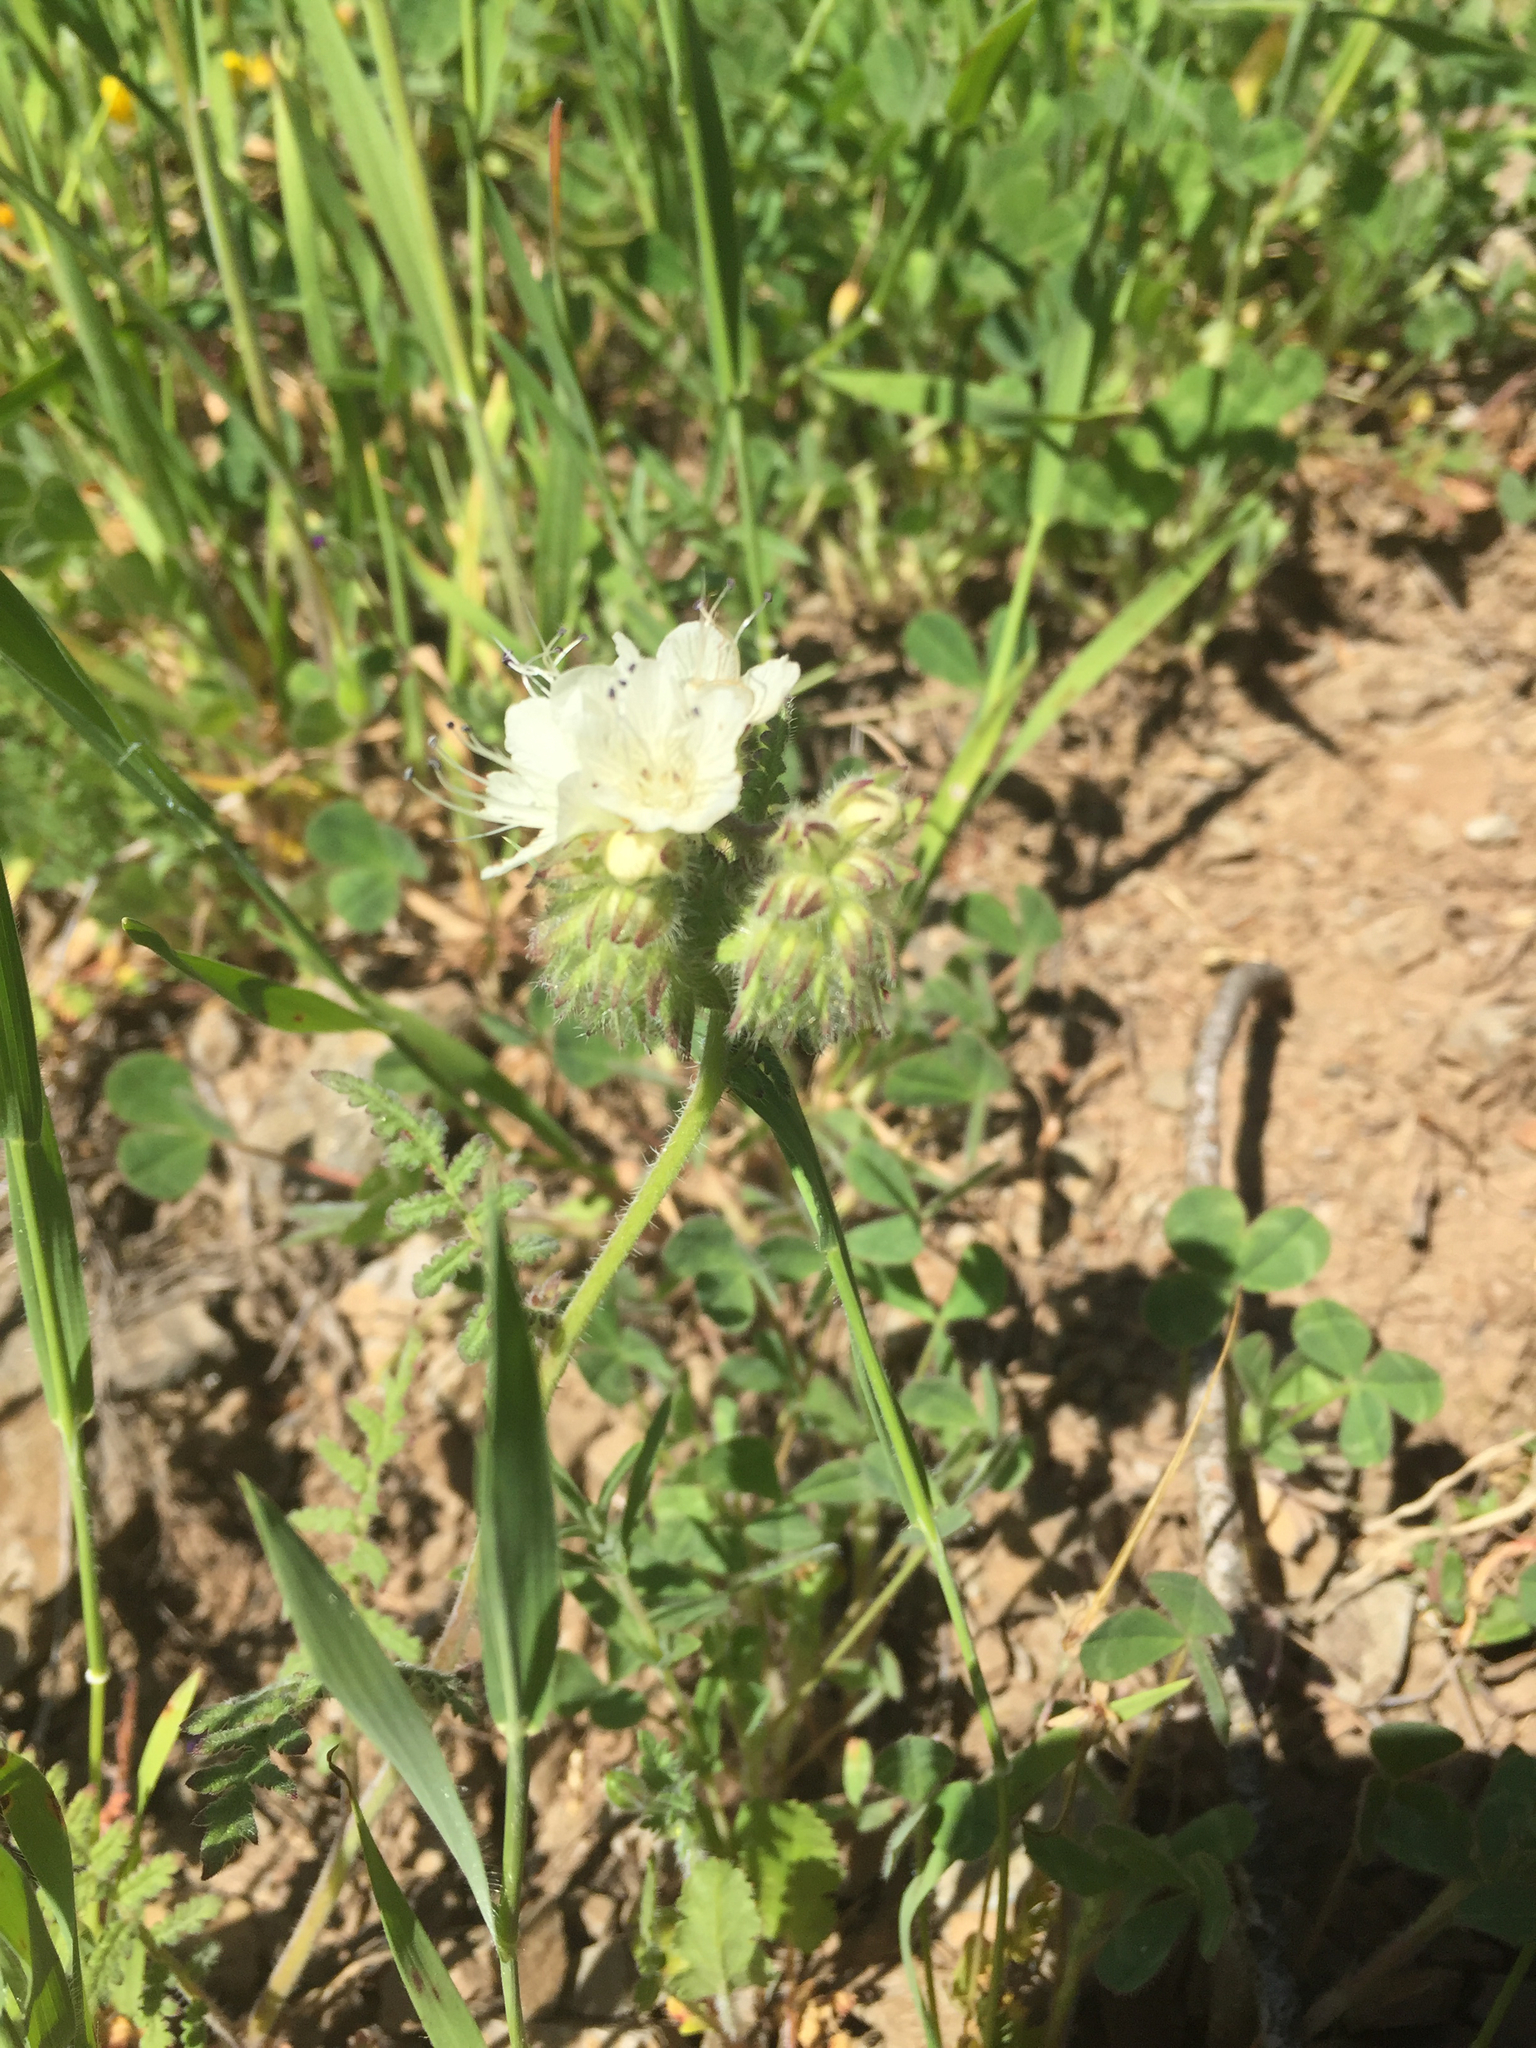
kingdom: Plantae
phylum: Tracheophyta
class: Magnoliopsida
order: Boraginales
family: Hydrophyllaceae
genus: Phacelia
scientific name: Phacelia distans
